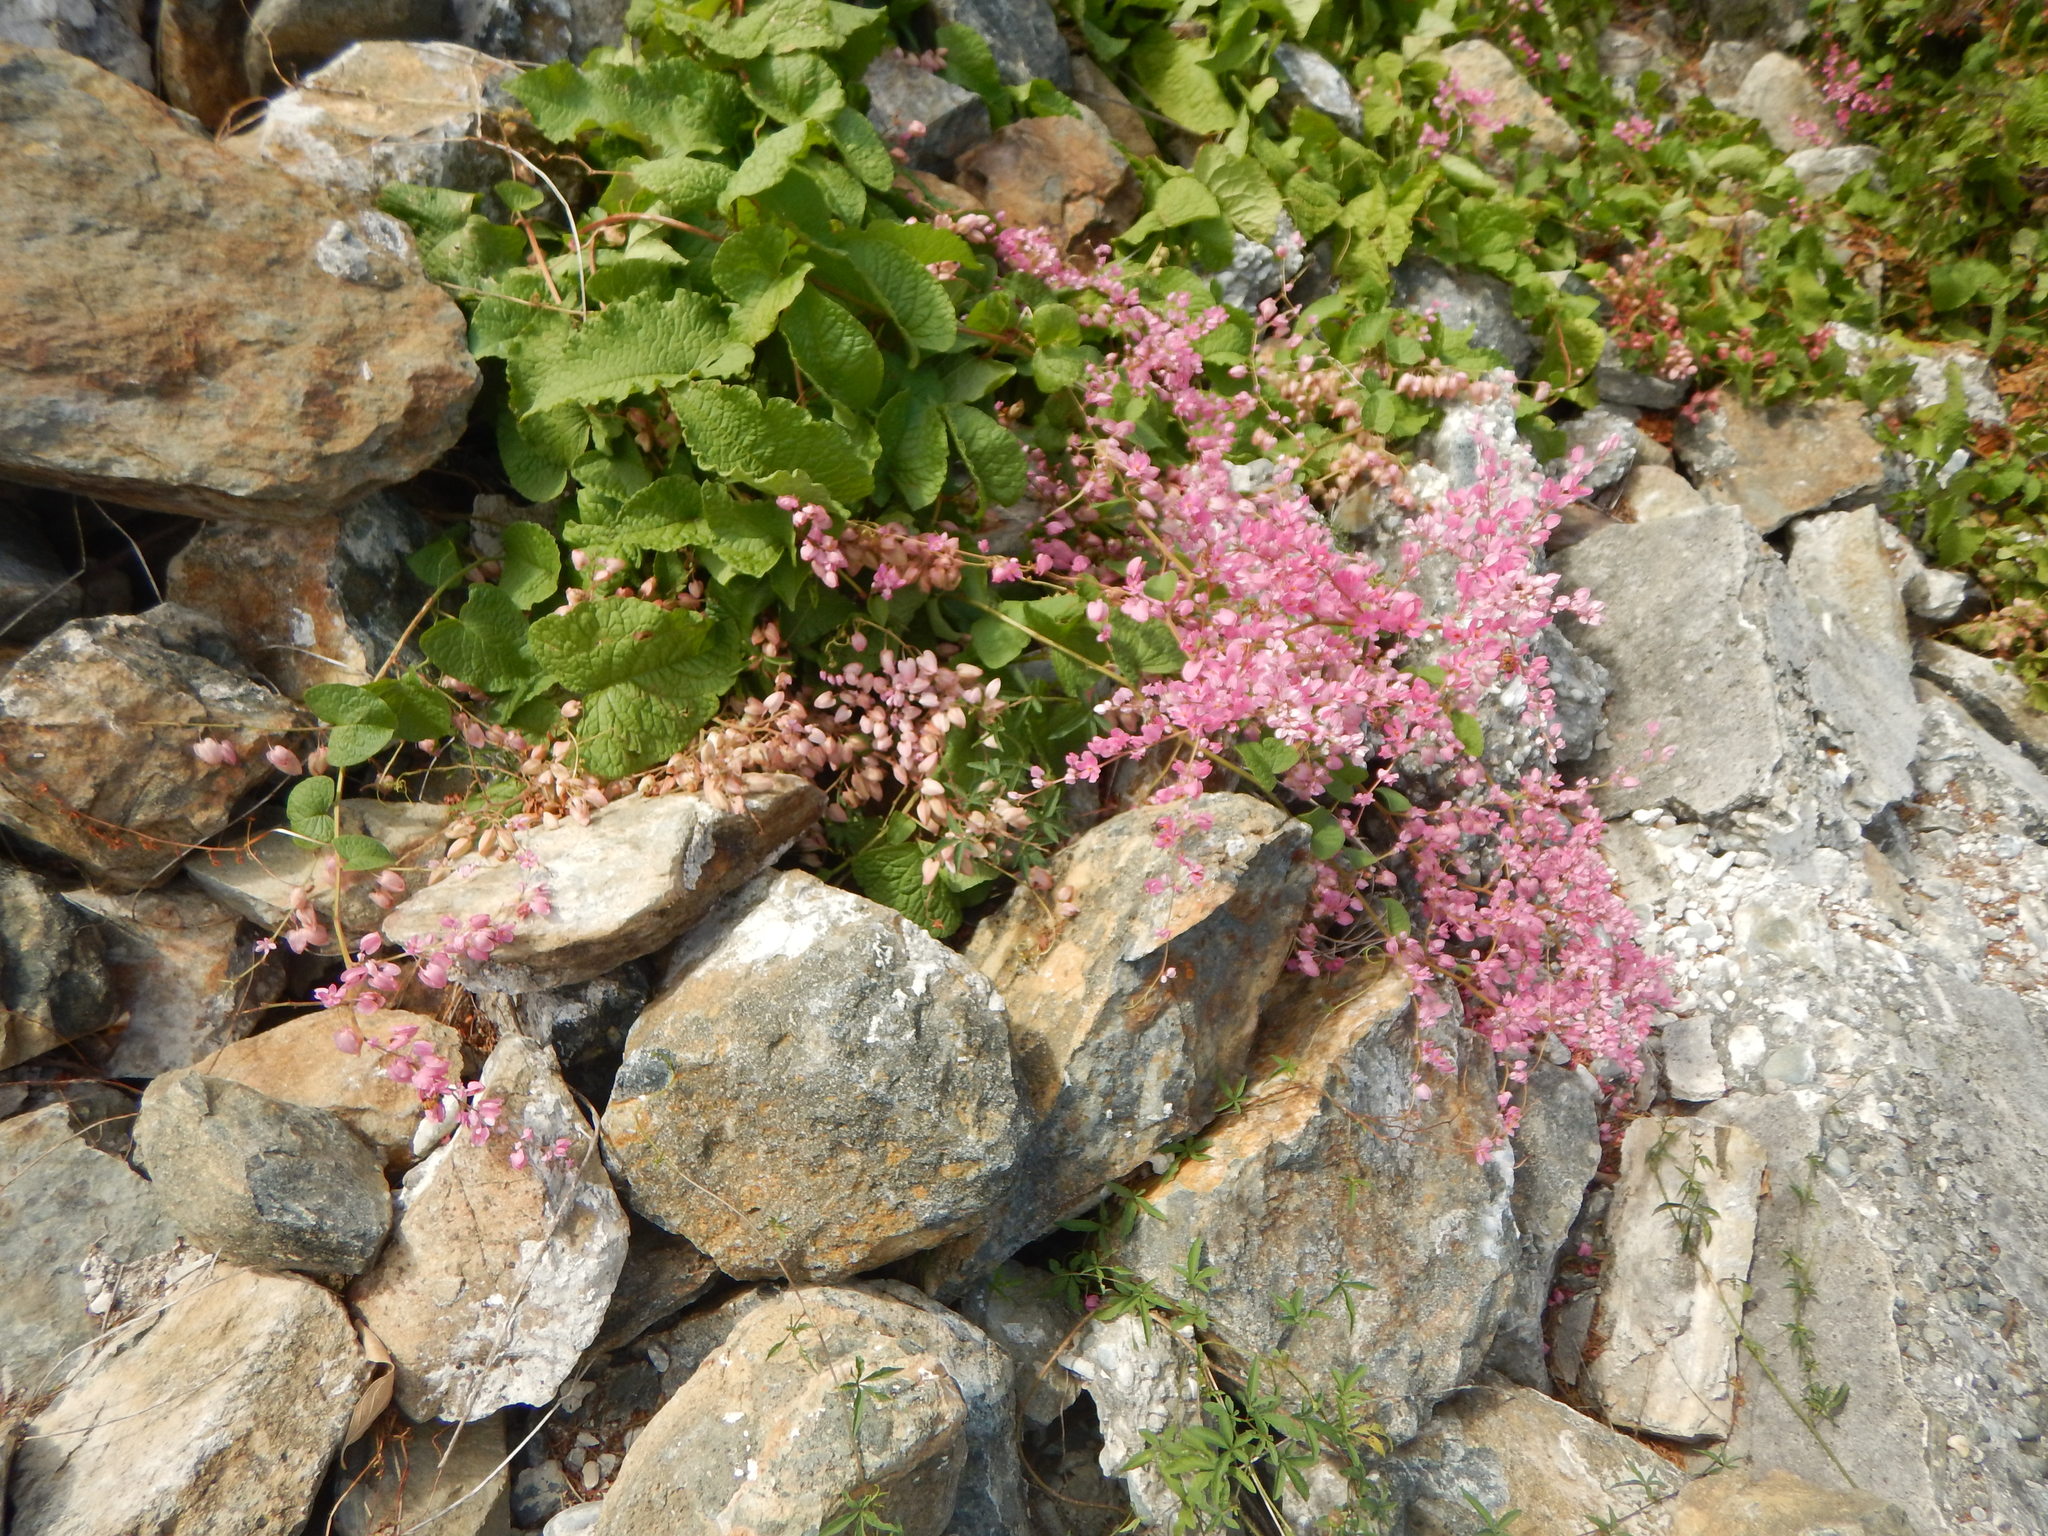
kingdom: Plantae
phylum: Tracheophyta
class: Magnoliopsida
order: Caryophyllales
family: Polygonaceae
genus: Antigonon
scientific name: Antigonon leptopus
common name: Coral vine
